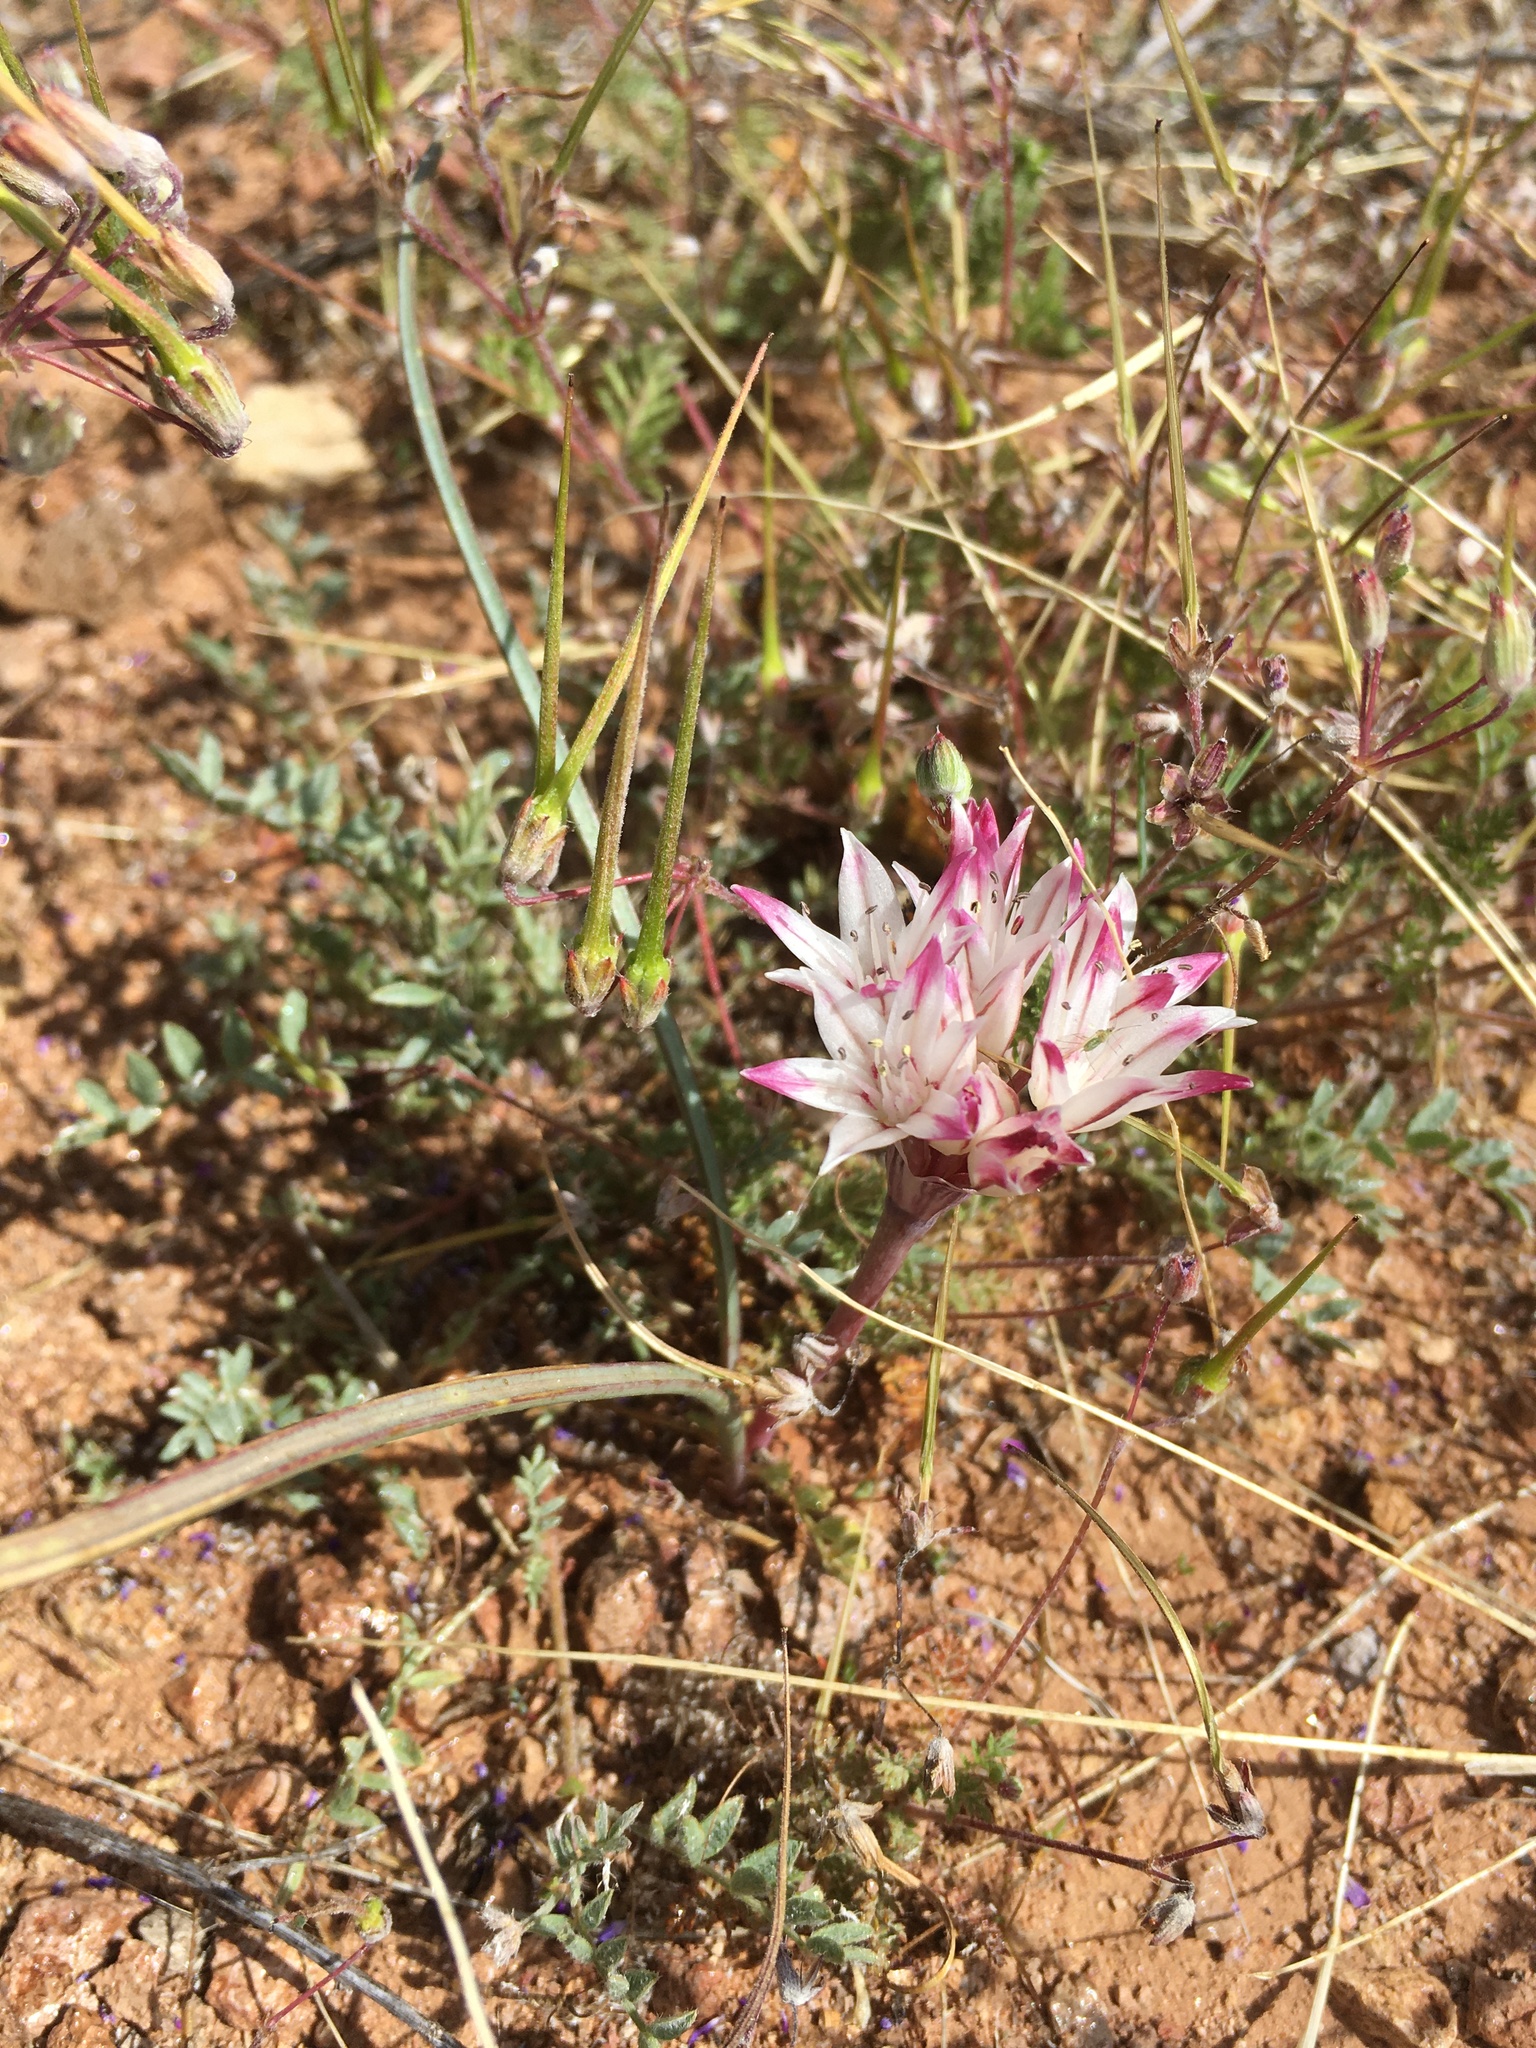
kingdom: Plantae
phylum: Tracheophyta
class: Liliopsida
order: Asparagales
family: Amaryllidaceae
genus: Allium
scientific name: Allium bigelovii
